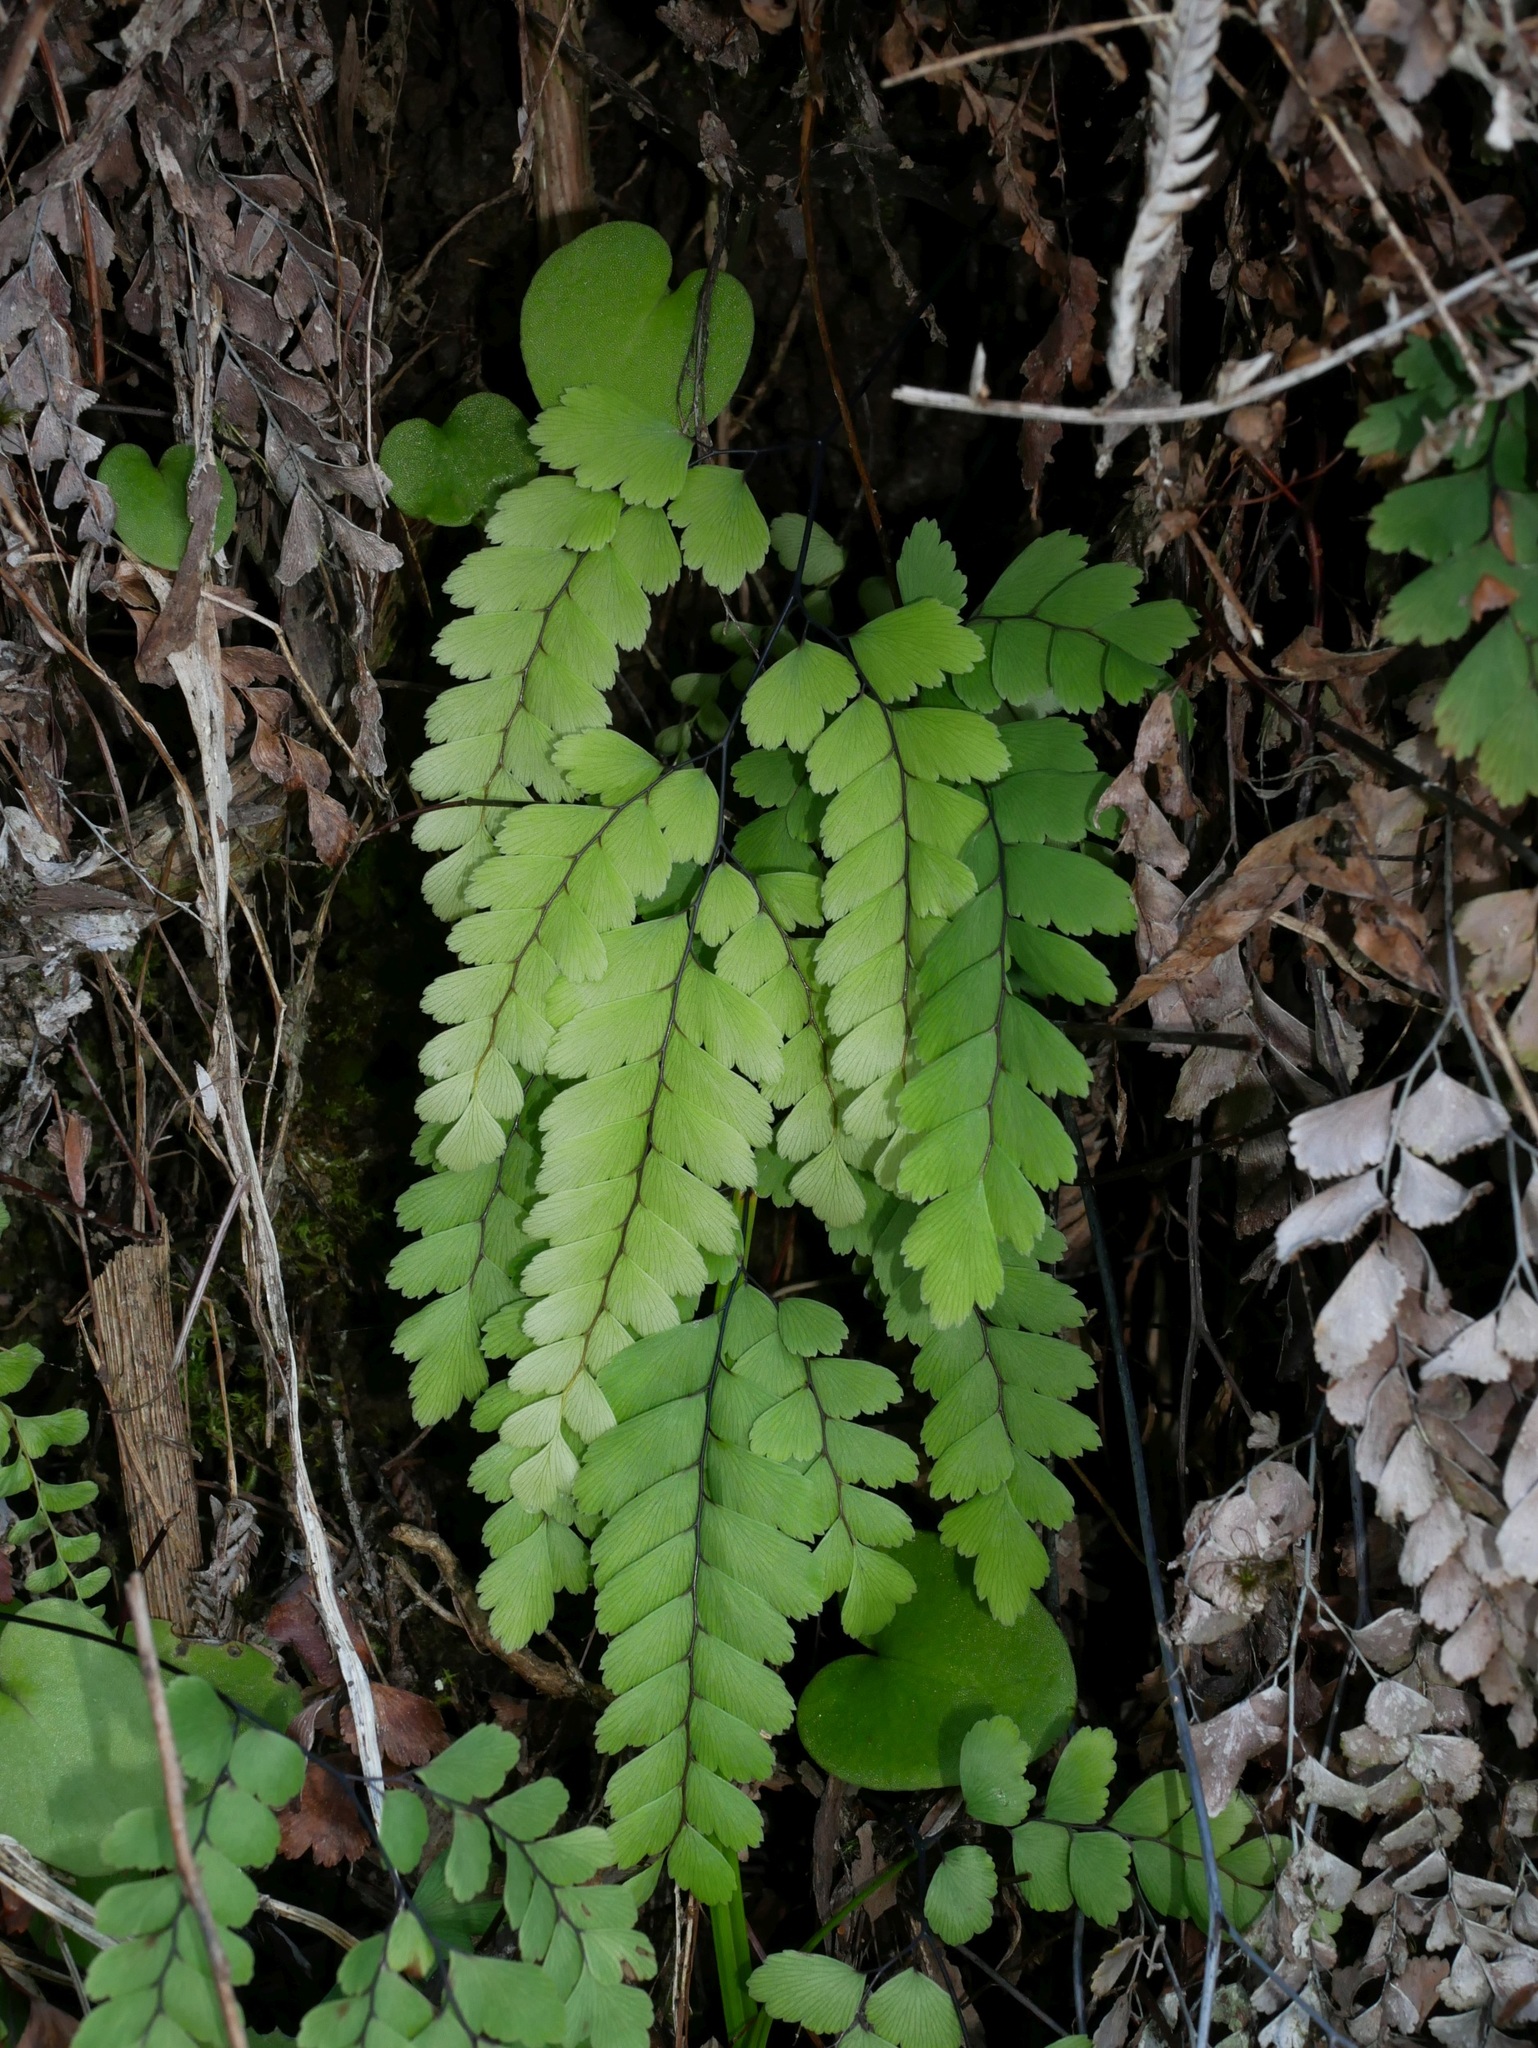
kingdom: Plantae
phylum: Tracheophyta
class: Polypodiopsida
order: Polypodiales
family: Pteridaceae
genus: Adiantum
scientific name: Adiantum cunninghamii
